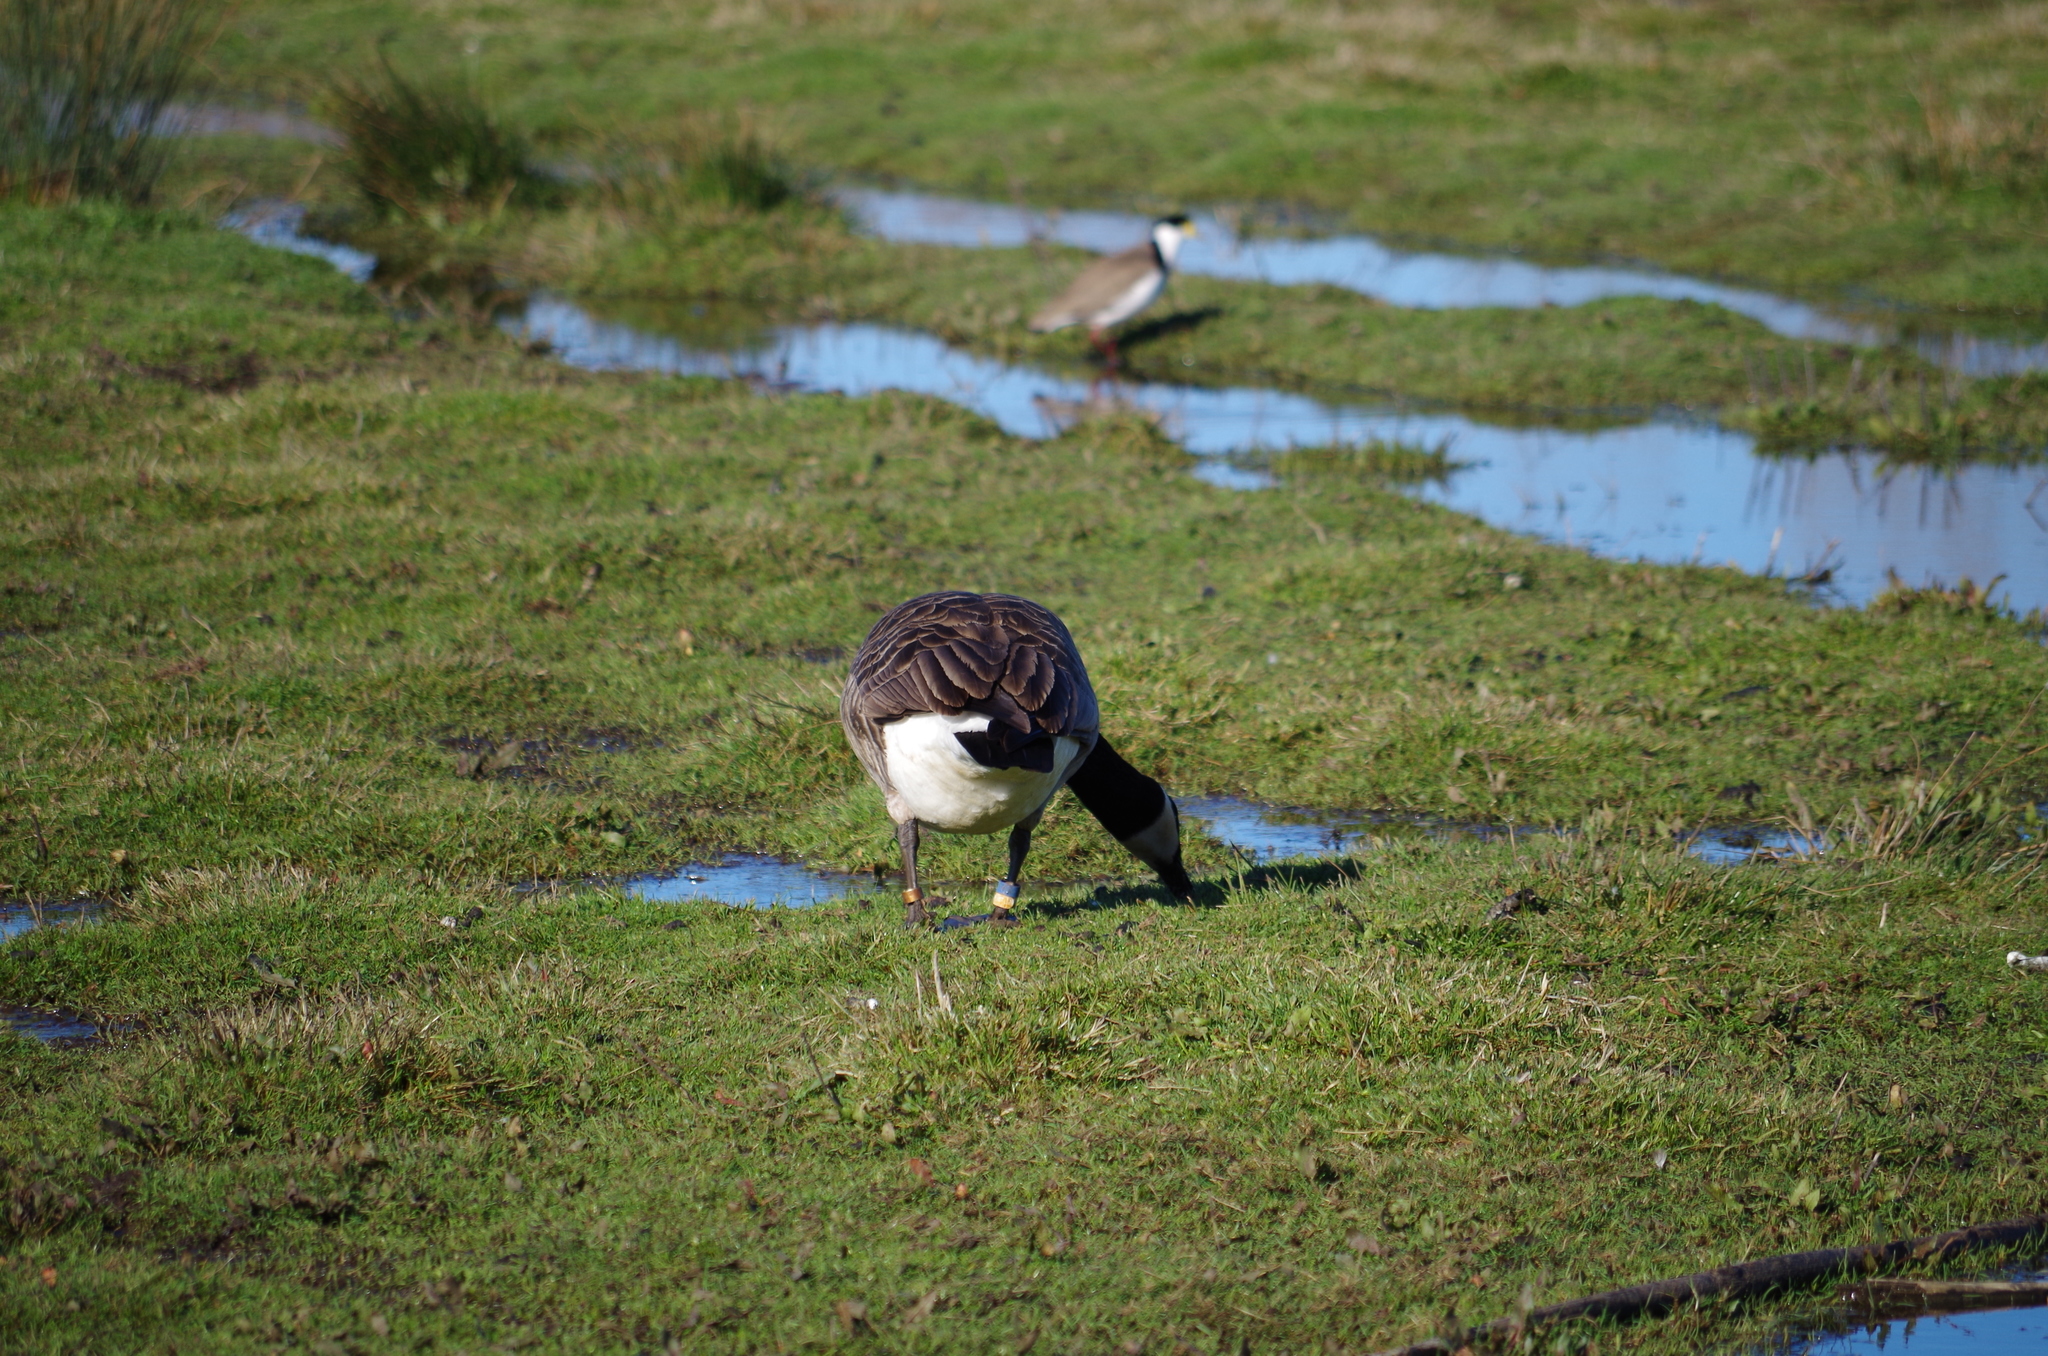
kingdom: Animalia
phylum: Chordata
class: Aves
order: Anseriformes
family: Anatidae
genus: Branta
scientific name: Branta canadensis
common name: Canada goose
